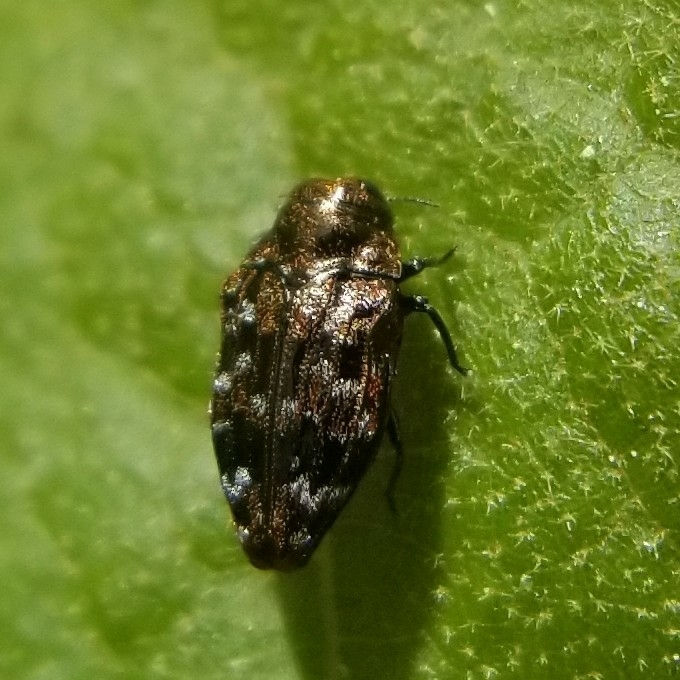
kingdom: Animalia
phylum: Arthropoda
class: Insecta
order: Coleoptera
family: Buprestidae
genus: Brachys
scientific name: Brachys ovatus
